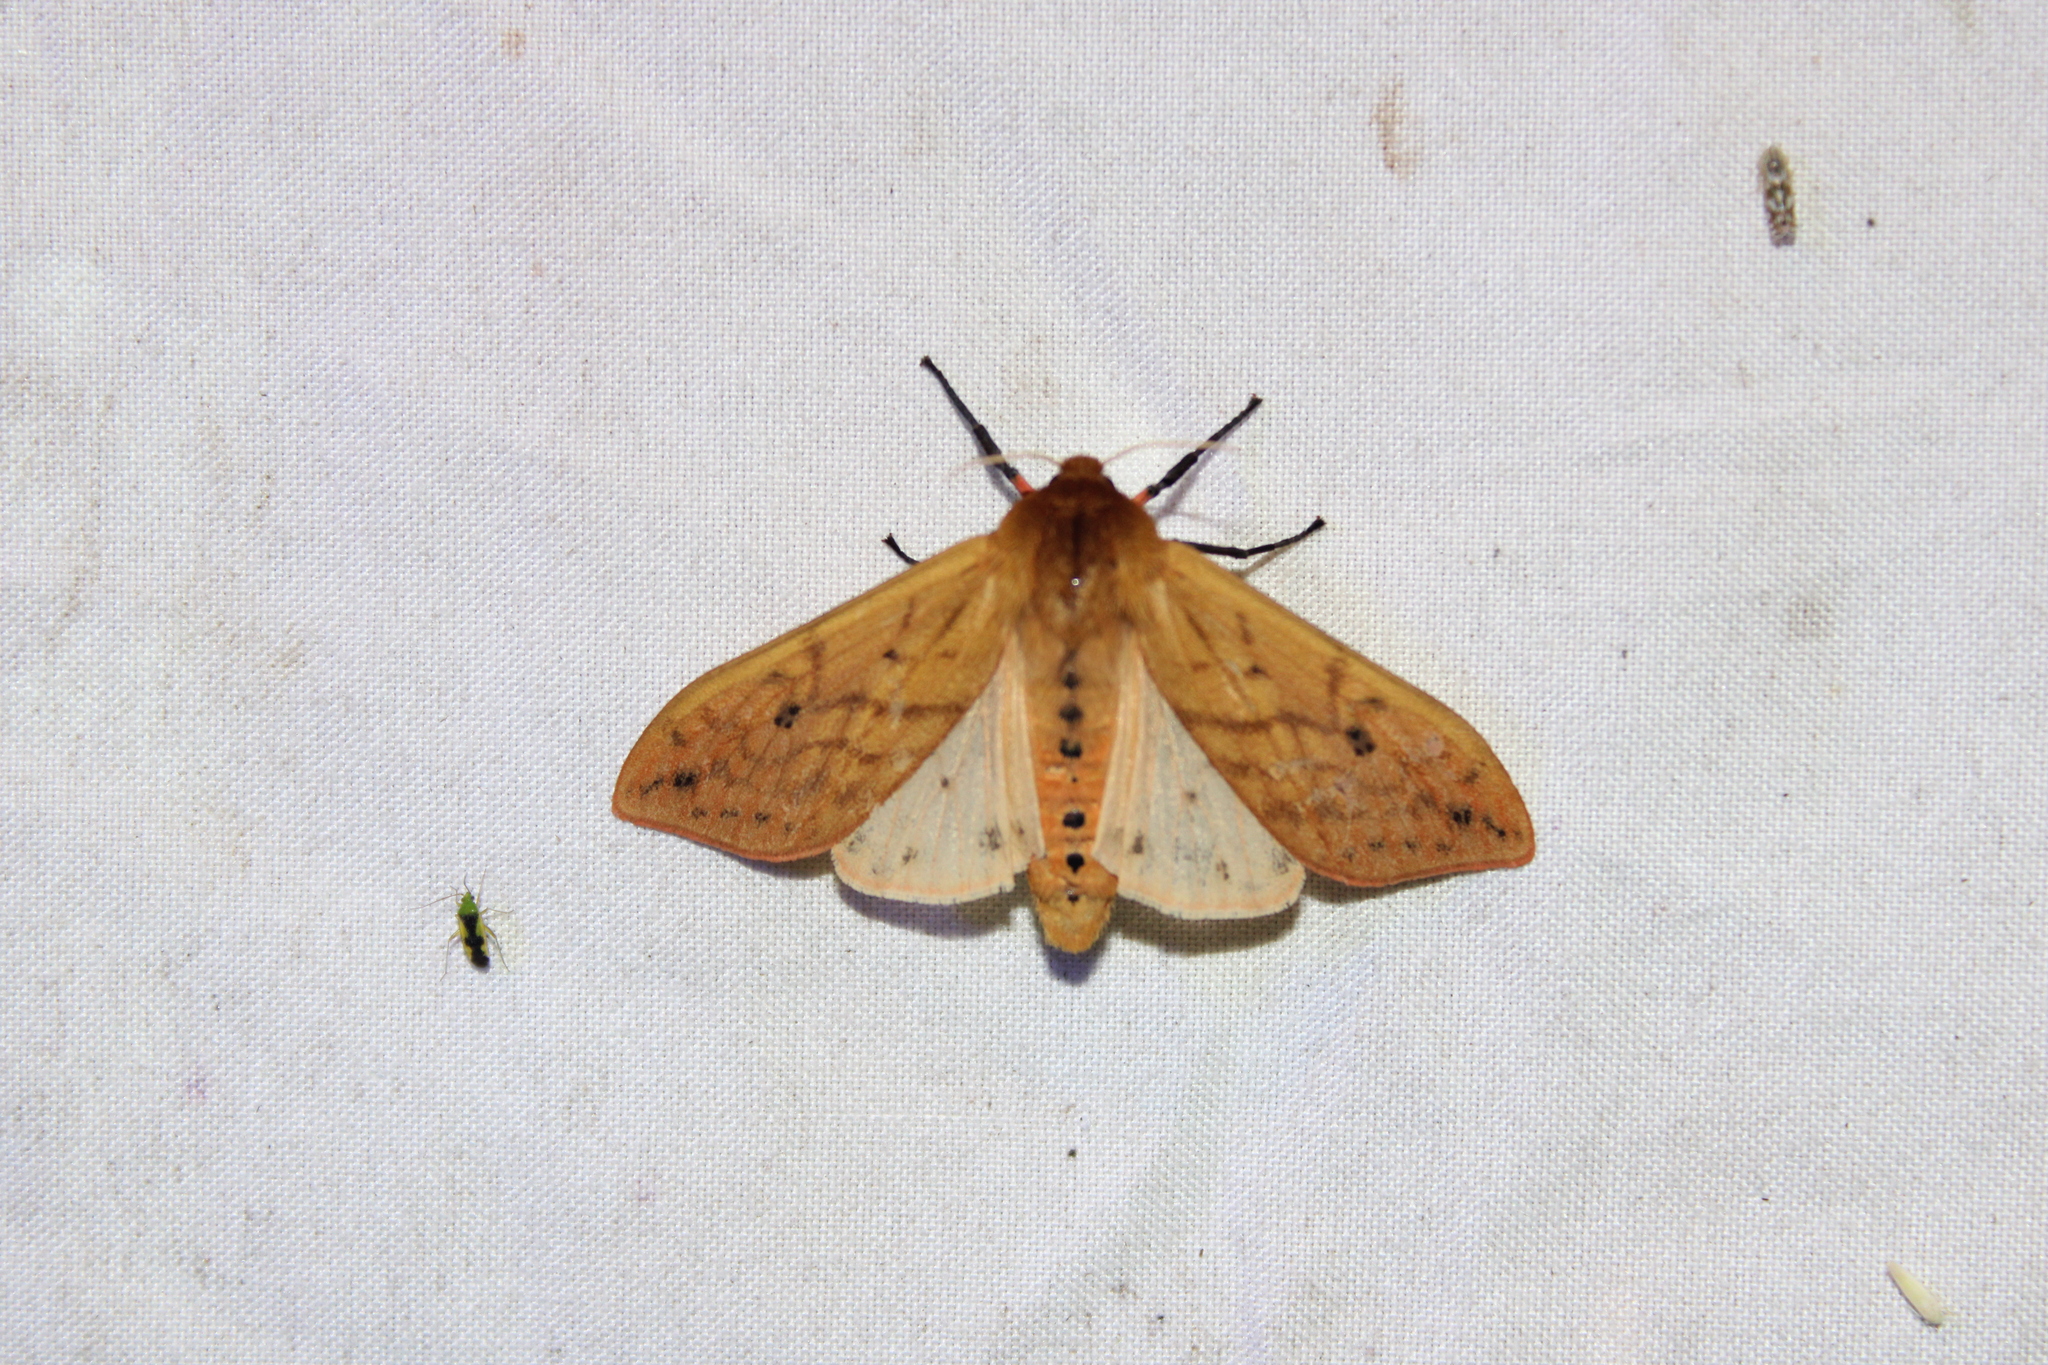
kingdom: Animalia
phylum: Arthropoda
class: Insecta
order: Lepidoptera
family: Erebidae
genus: Pyrrharctia
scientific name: Pyrrharctia isabella
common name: Isabella tiger moth
